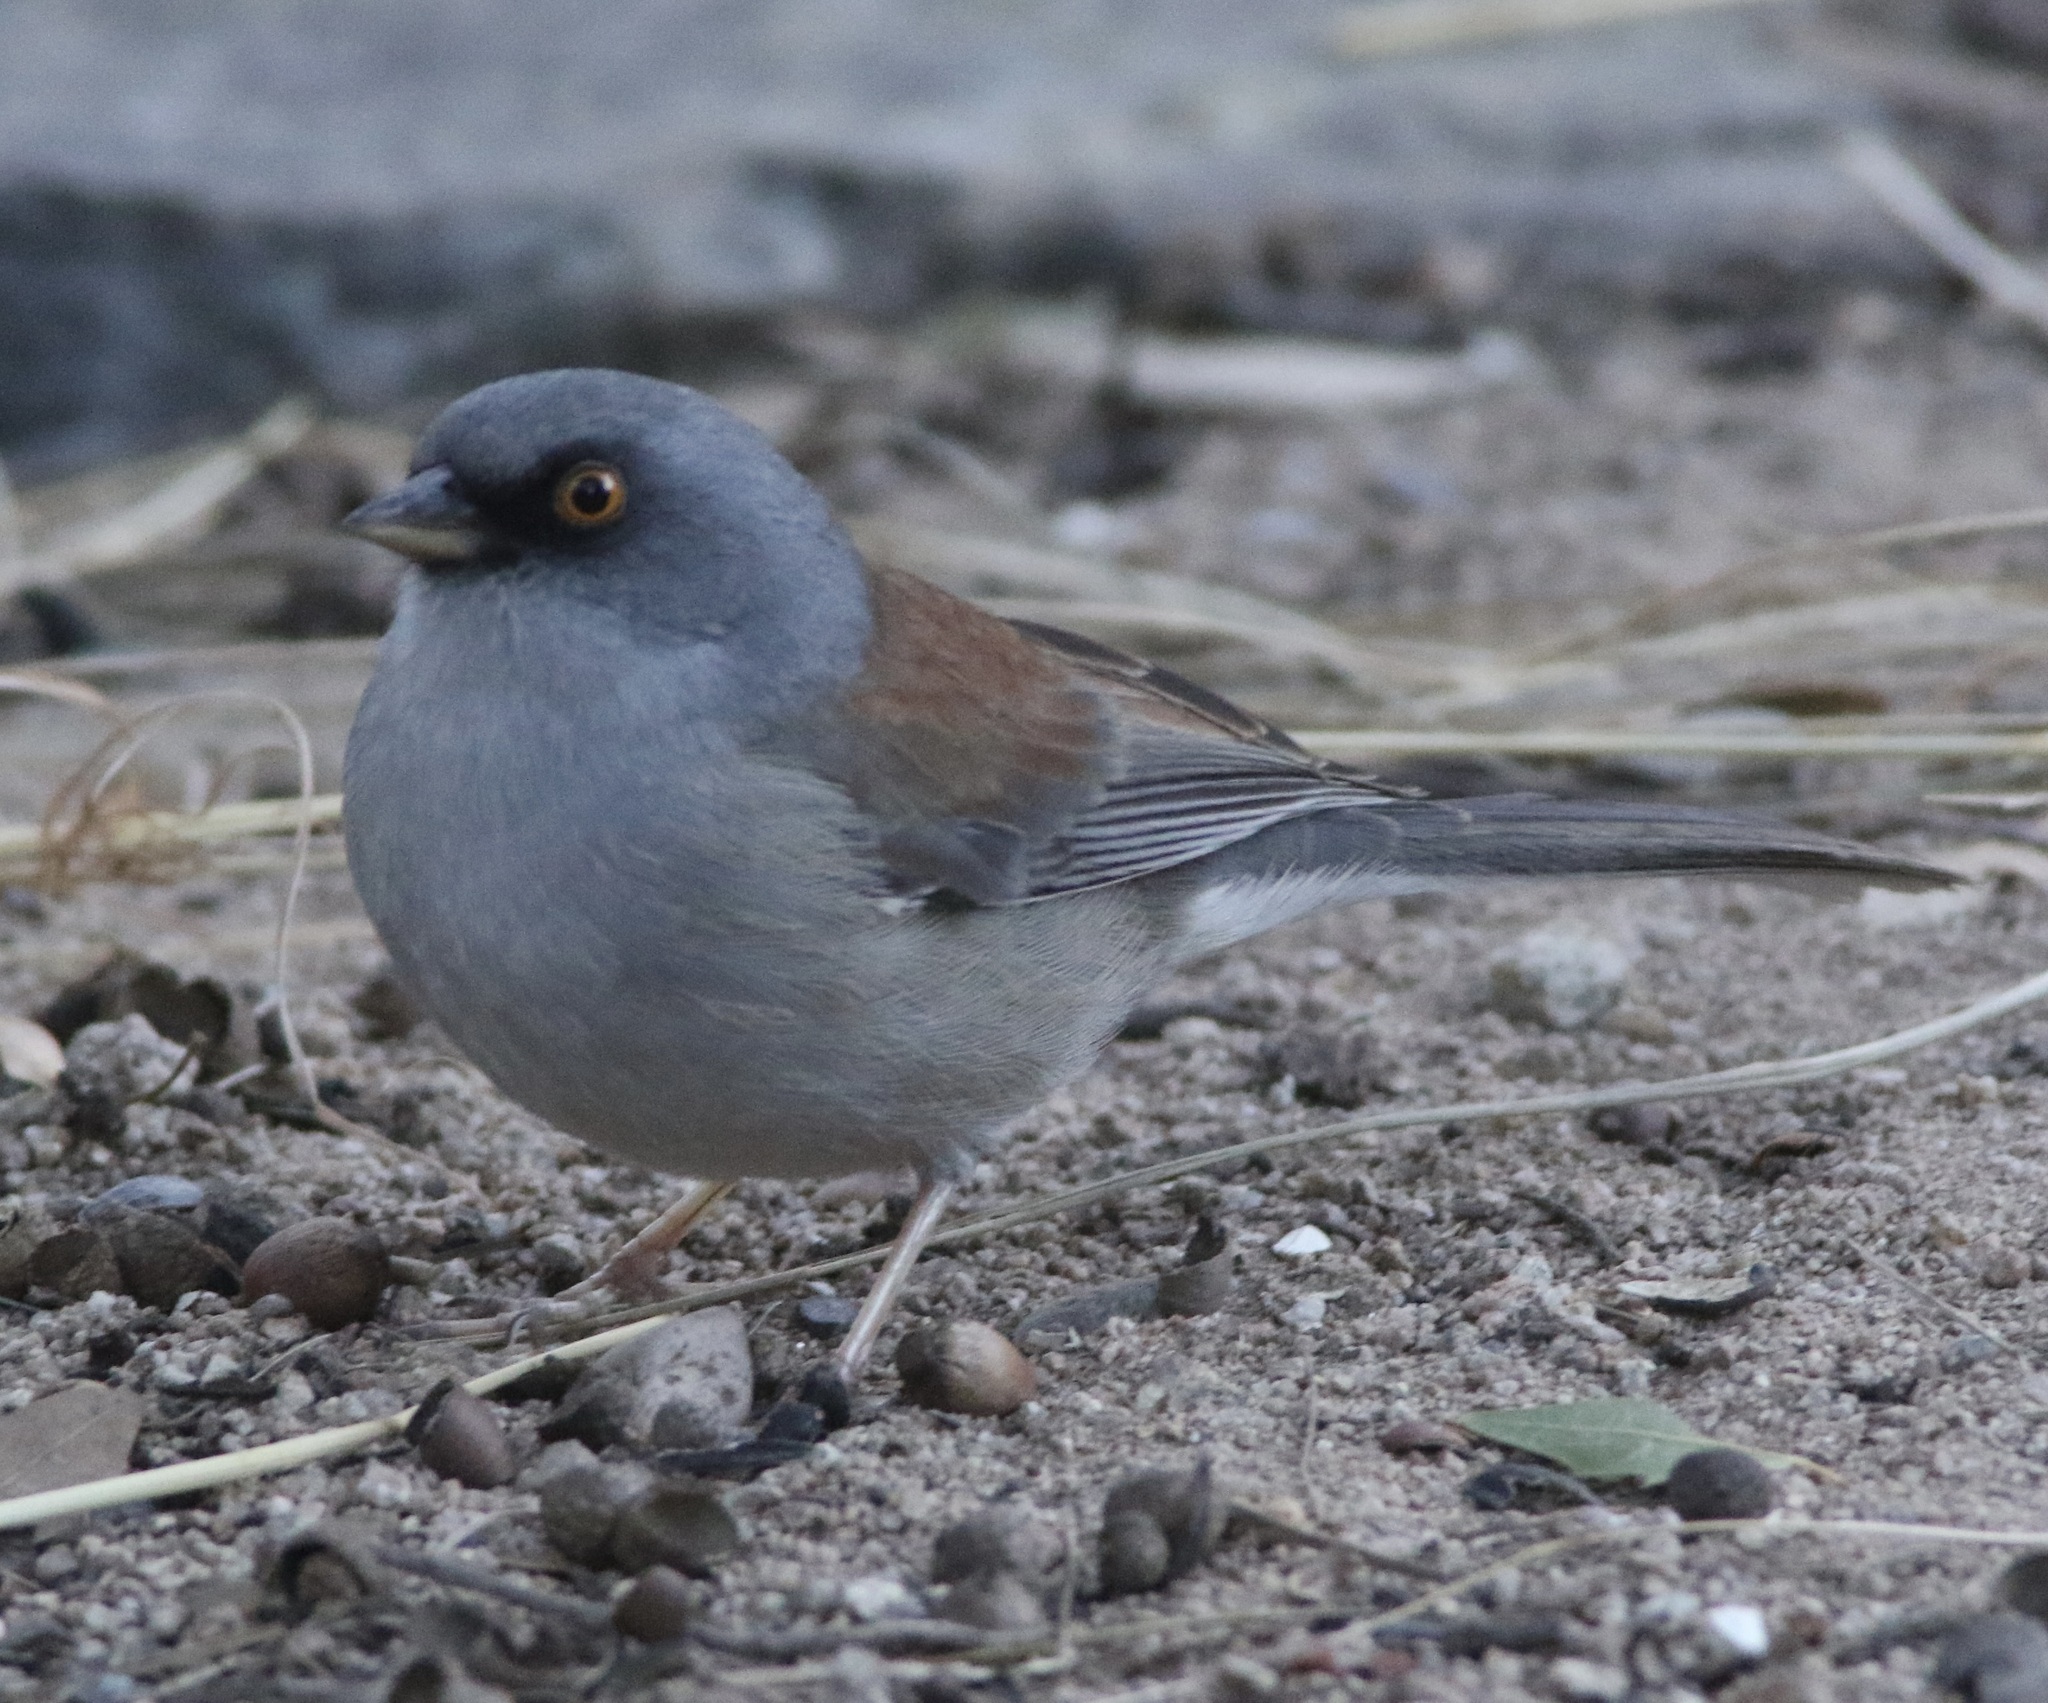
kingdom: Animalia
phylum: Chordata
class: Aves
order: Passeriformes
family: Passerellidae
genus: Junco
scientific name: Junco phaeonotus
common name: Yellow-eyed junco
